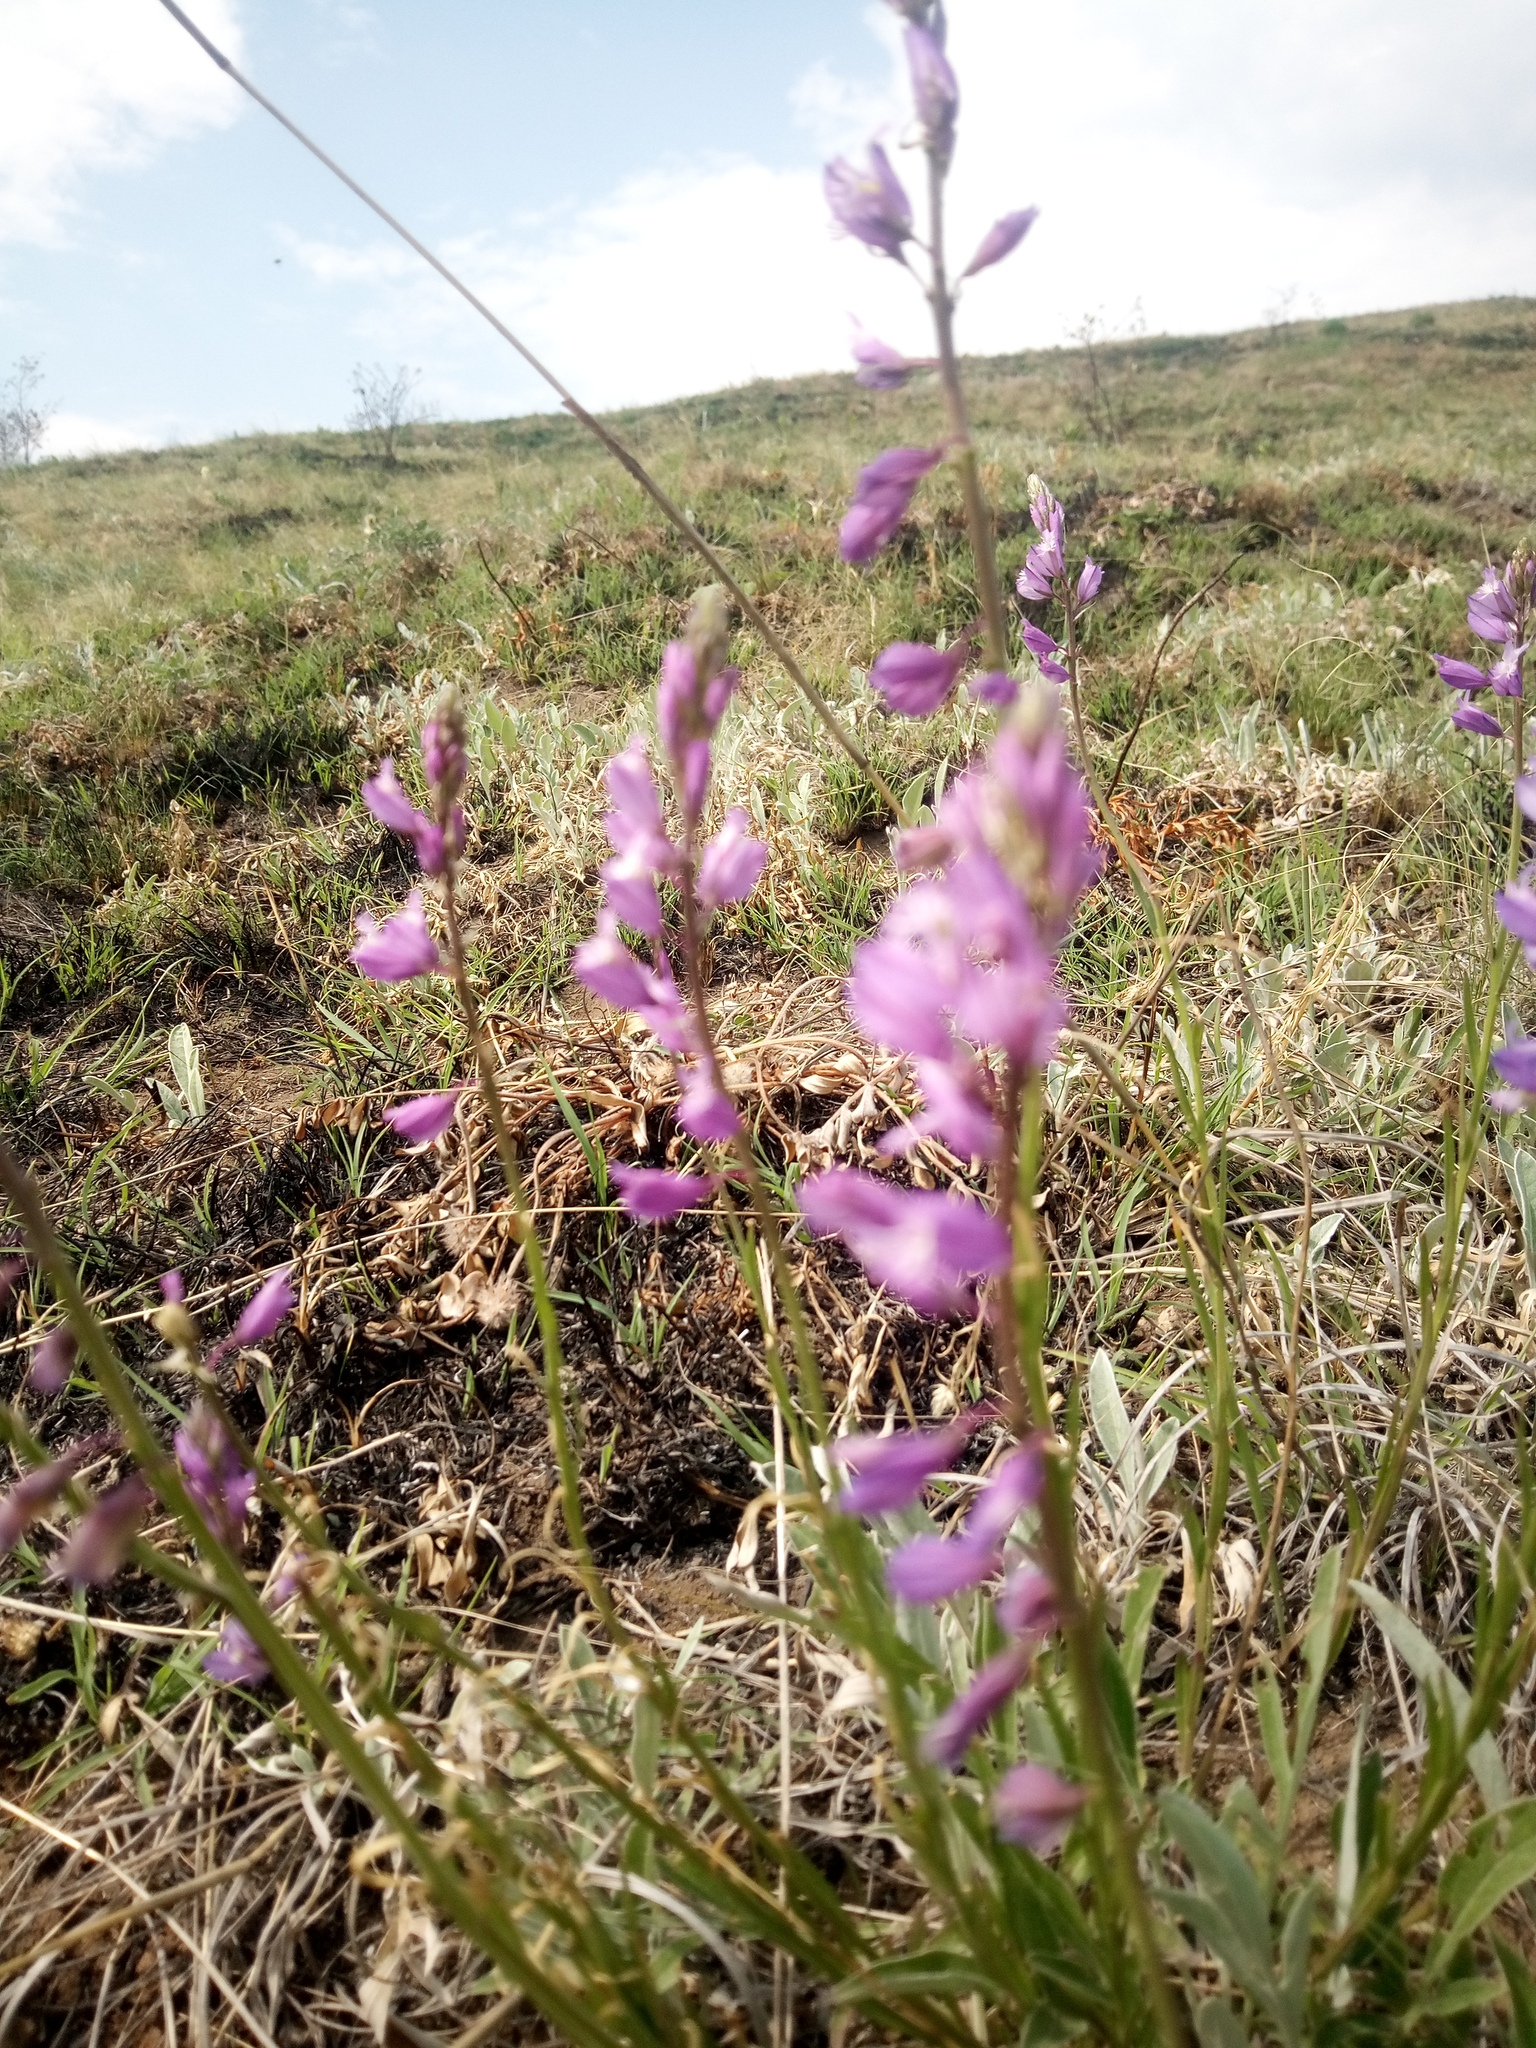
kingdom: Plantae
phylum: Tracheophyta
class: Magnoliopsida
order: Fabales
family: Polygalaceae
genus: Polygala
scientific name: Polygala comosa
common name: Tufted milkwort
